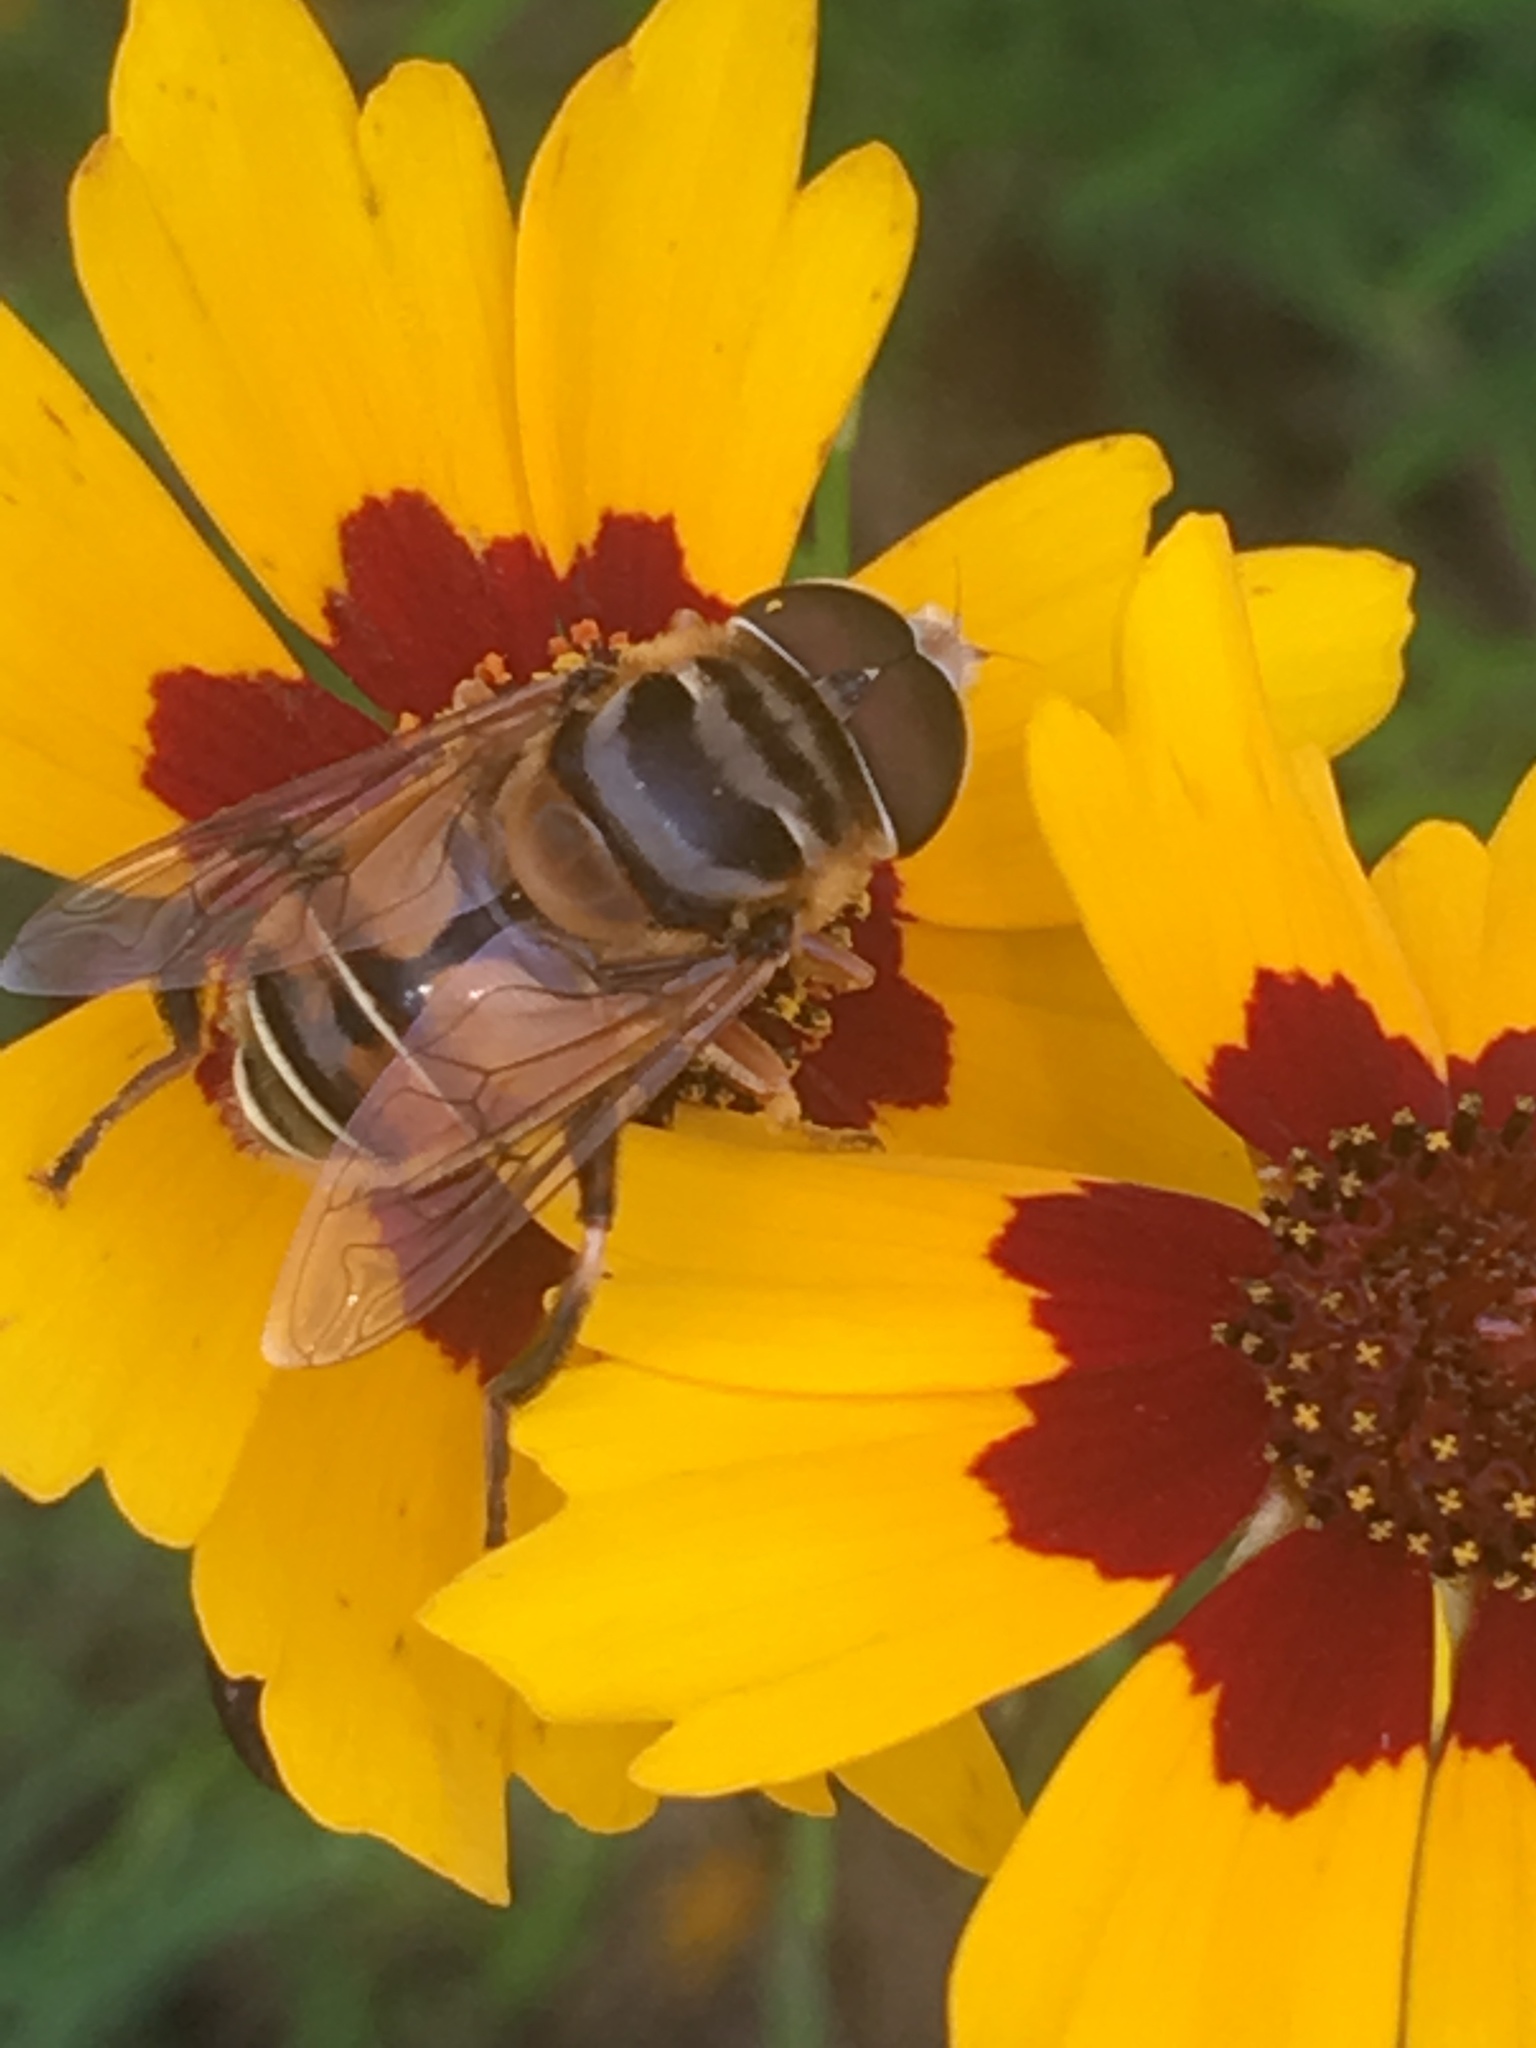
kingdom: Animalia
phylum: Arthropoda
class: Insecta
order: Diptera
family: Syrphidae
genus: Palpada
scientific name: Palpada vinetorum
